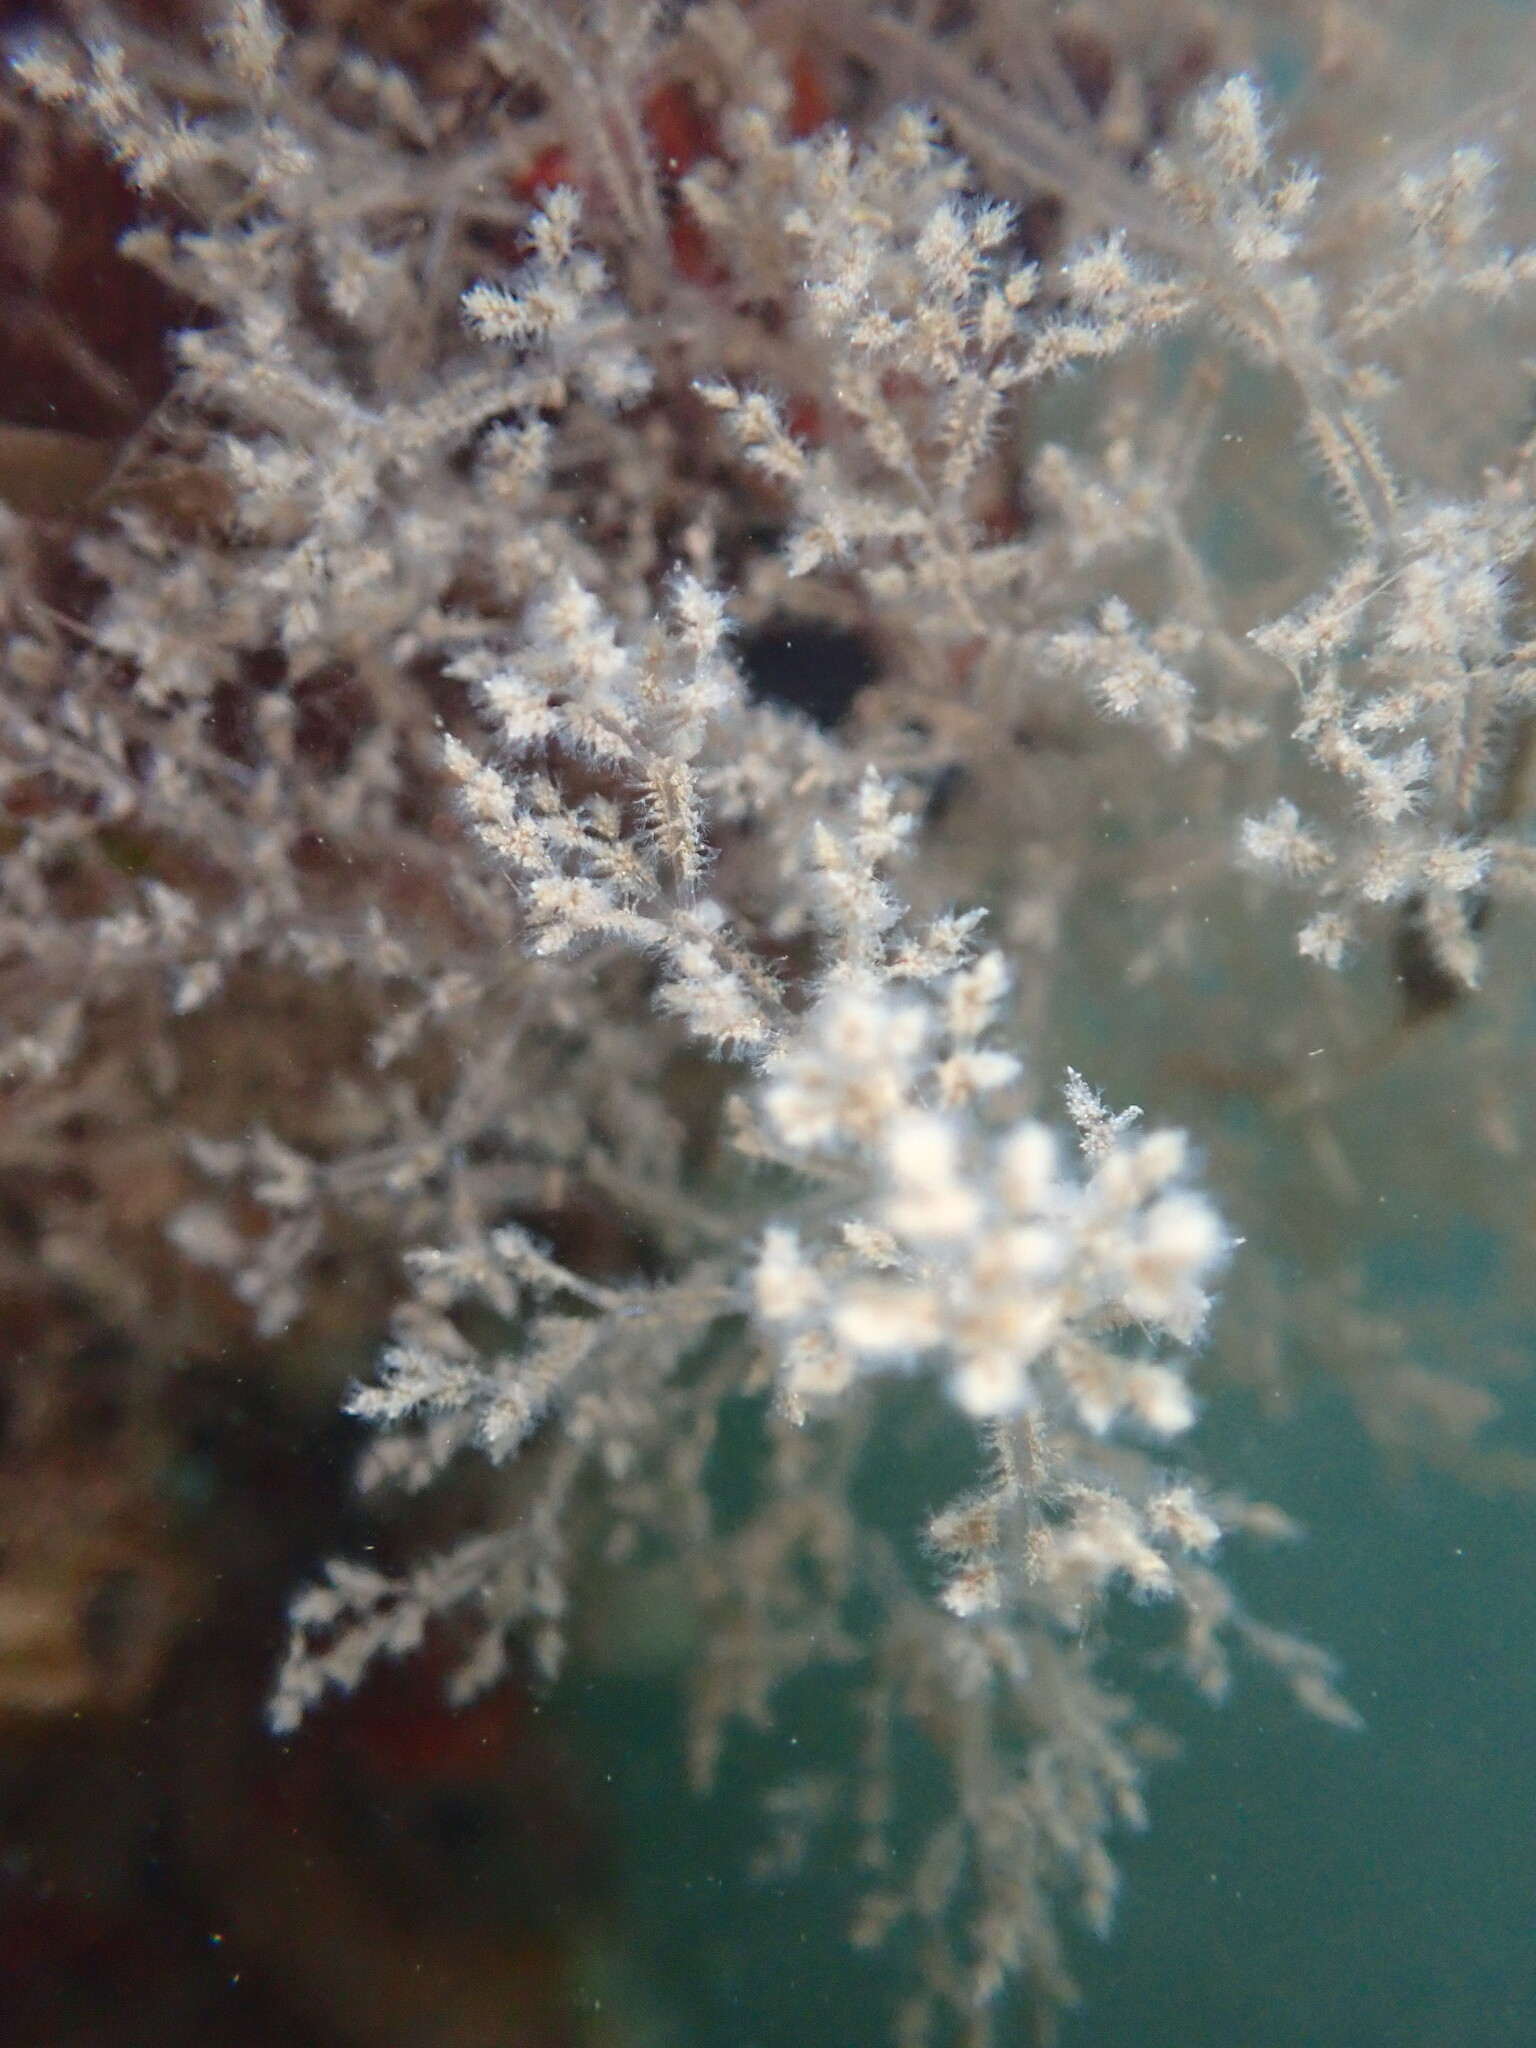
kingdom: Animalia
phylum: Bryozoa
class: Gymnolaemata
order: Ctenostomatida
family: Vesiculariidae
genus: Amathia
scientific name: Amathia verticillata
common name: Whorled zoobotryon
